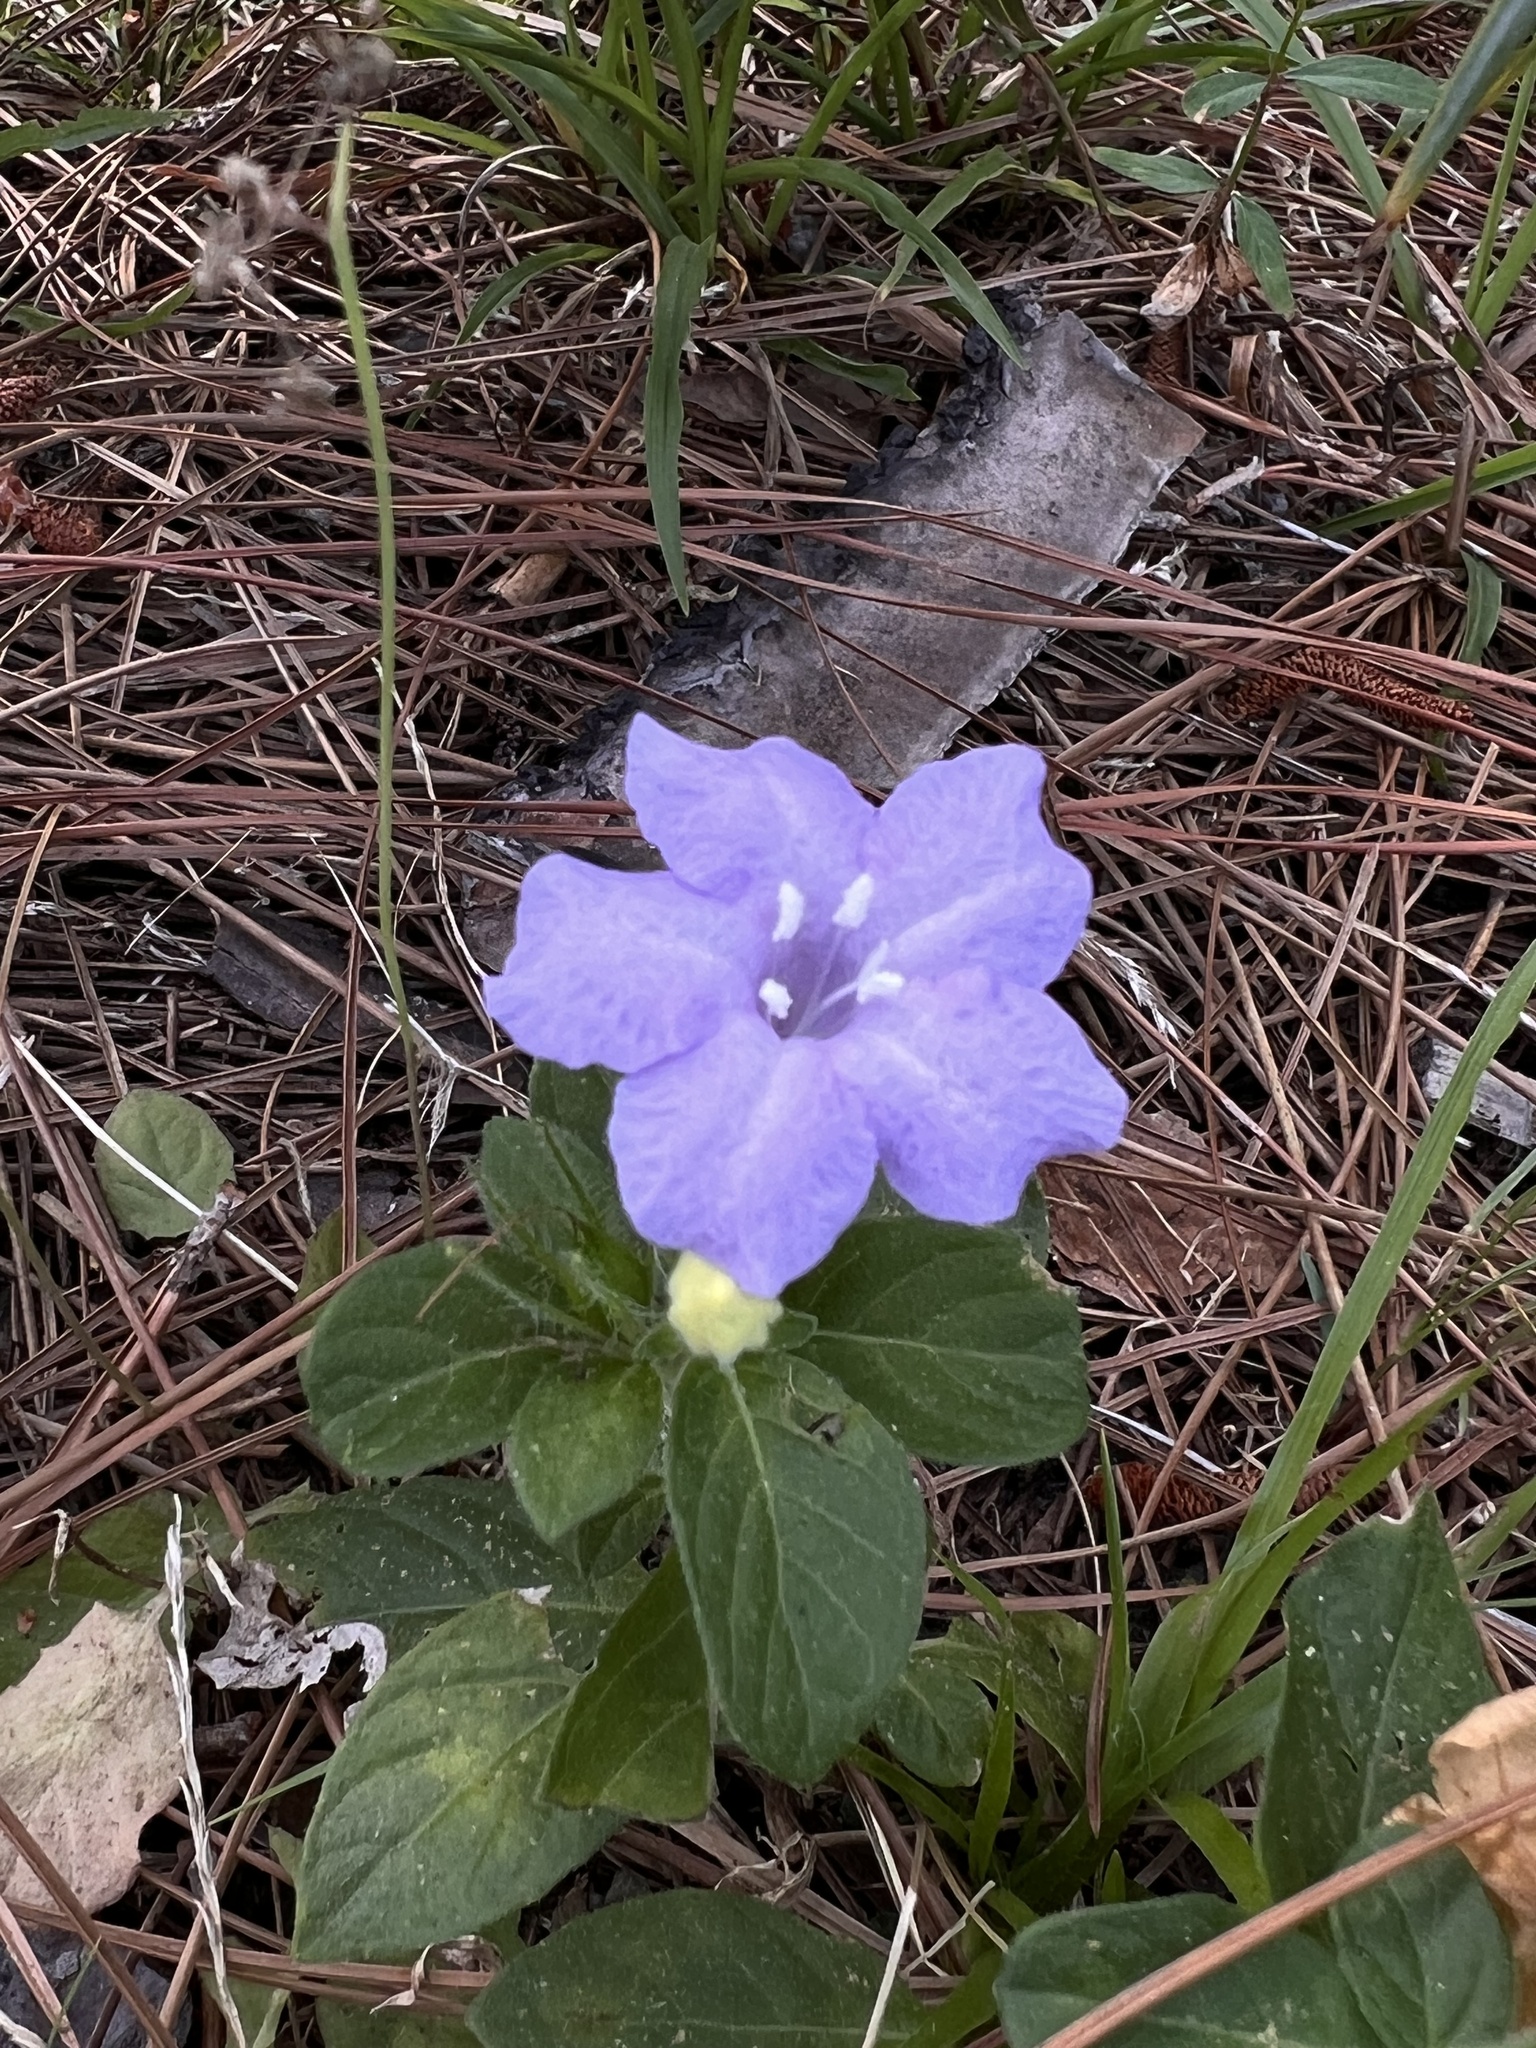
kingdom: Plantae
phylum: Tracheophyta
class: Magnoliopsida
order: Lamiales
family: Acanthaceae
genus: Ruellia
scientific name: Ruellia caroliniensis
